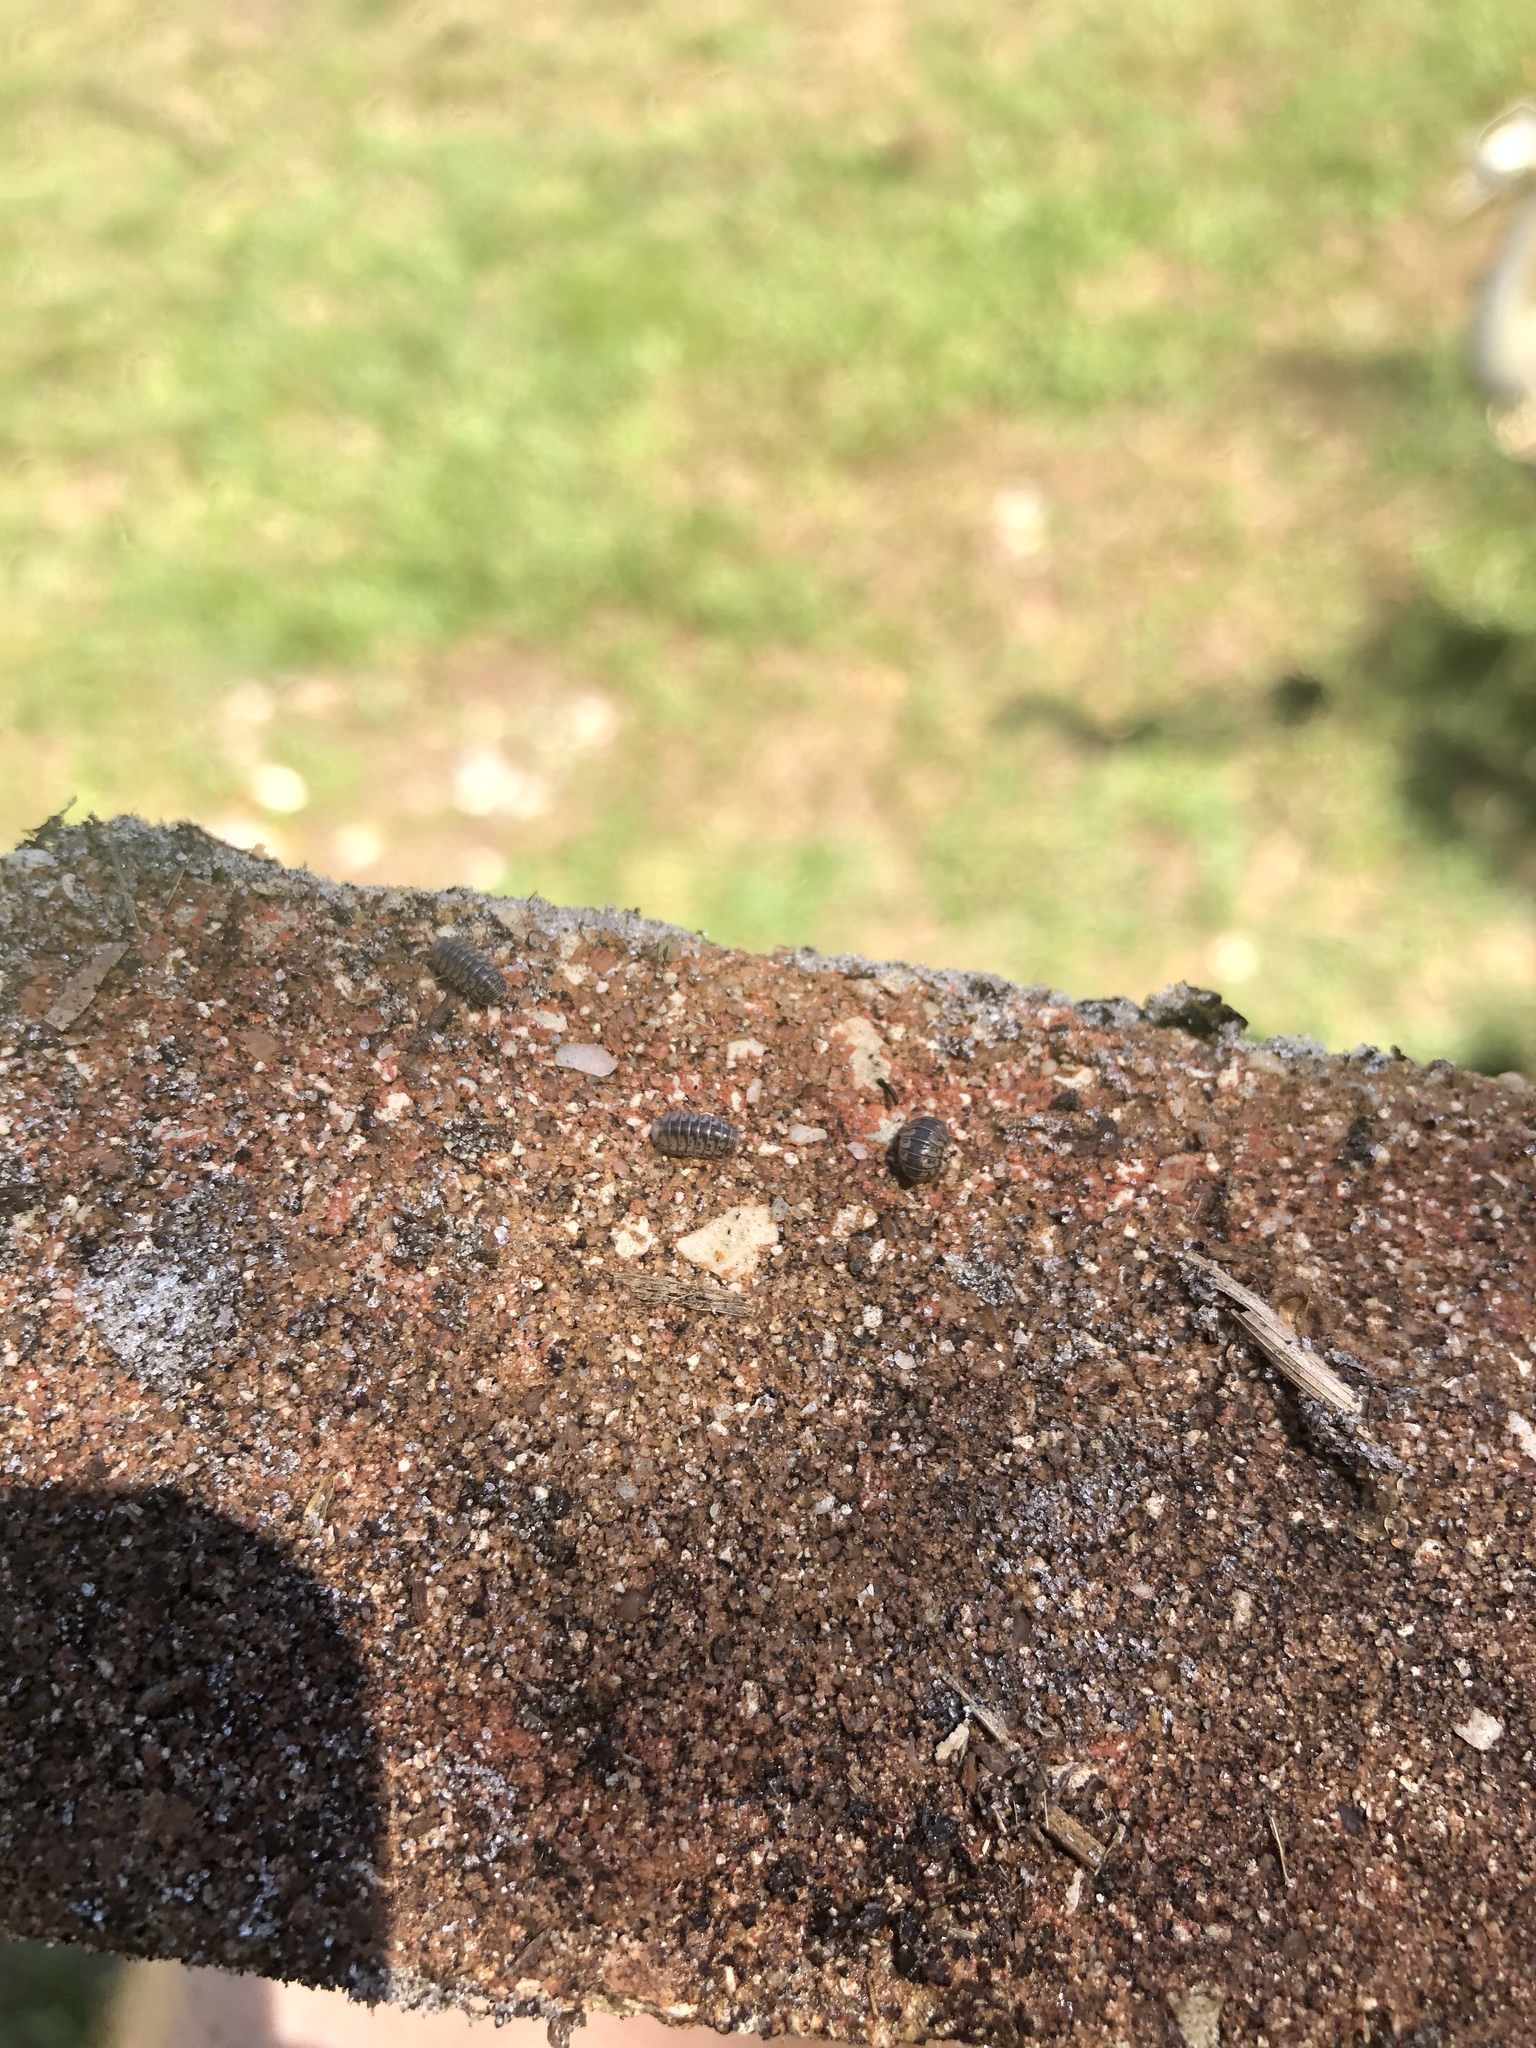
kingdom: Animalia
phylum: Arthropoda
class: Malacostraca
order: Isopoda
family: Armadillidae
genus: Venezillo
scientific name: Venezillo parvus
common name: Pillbug
